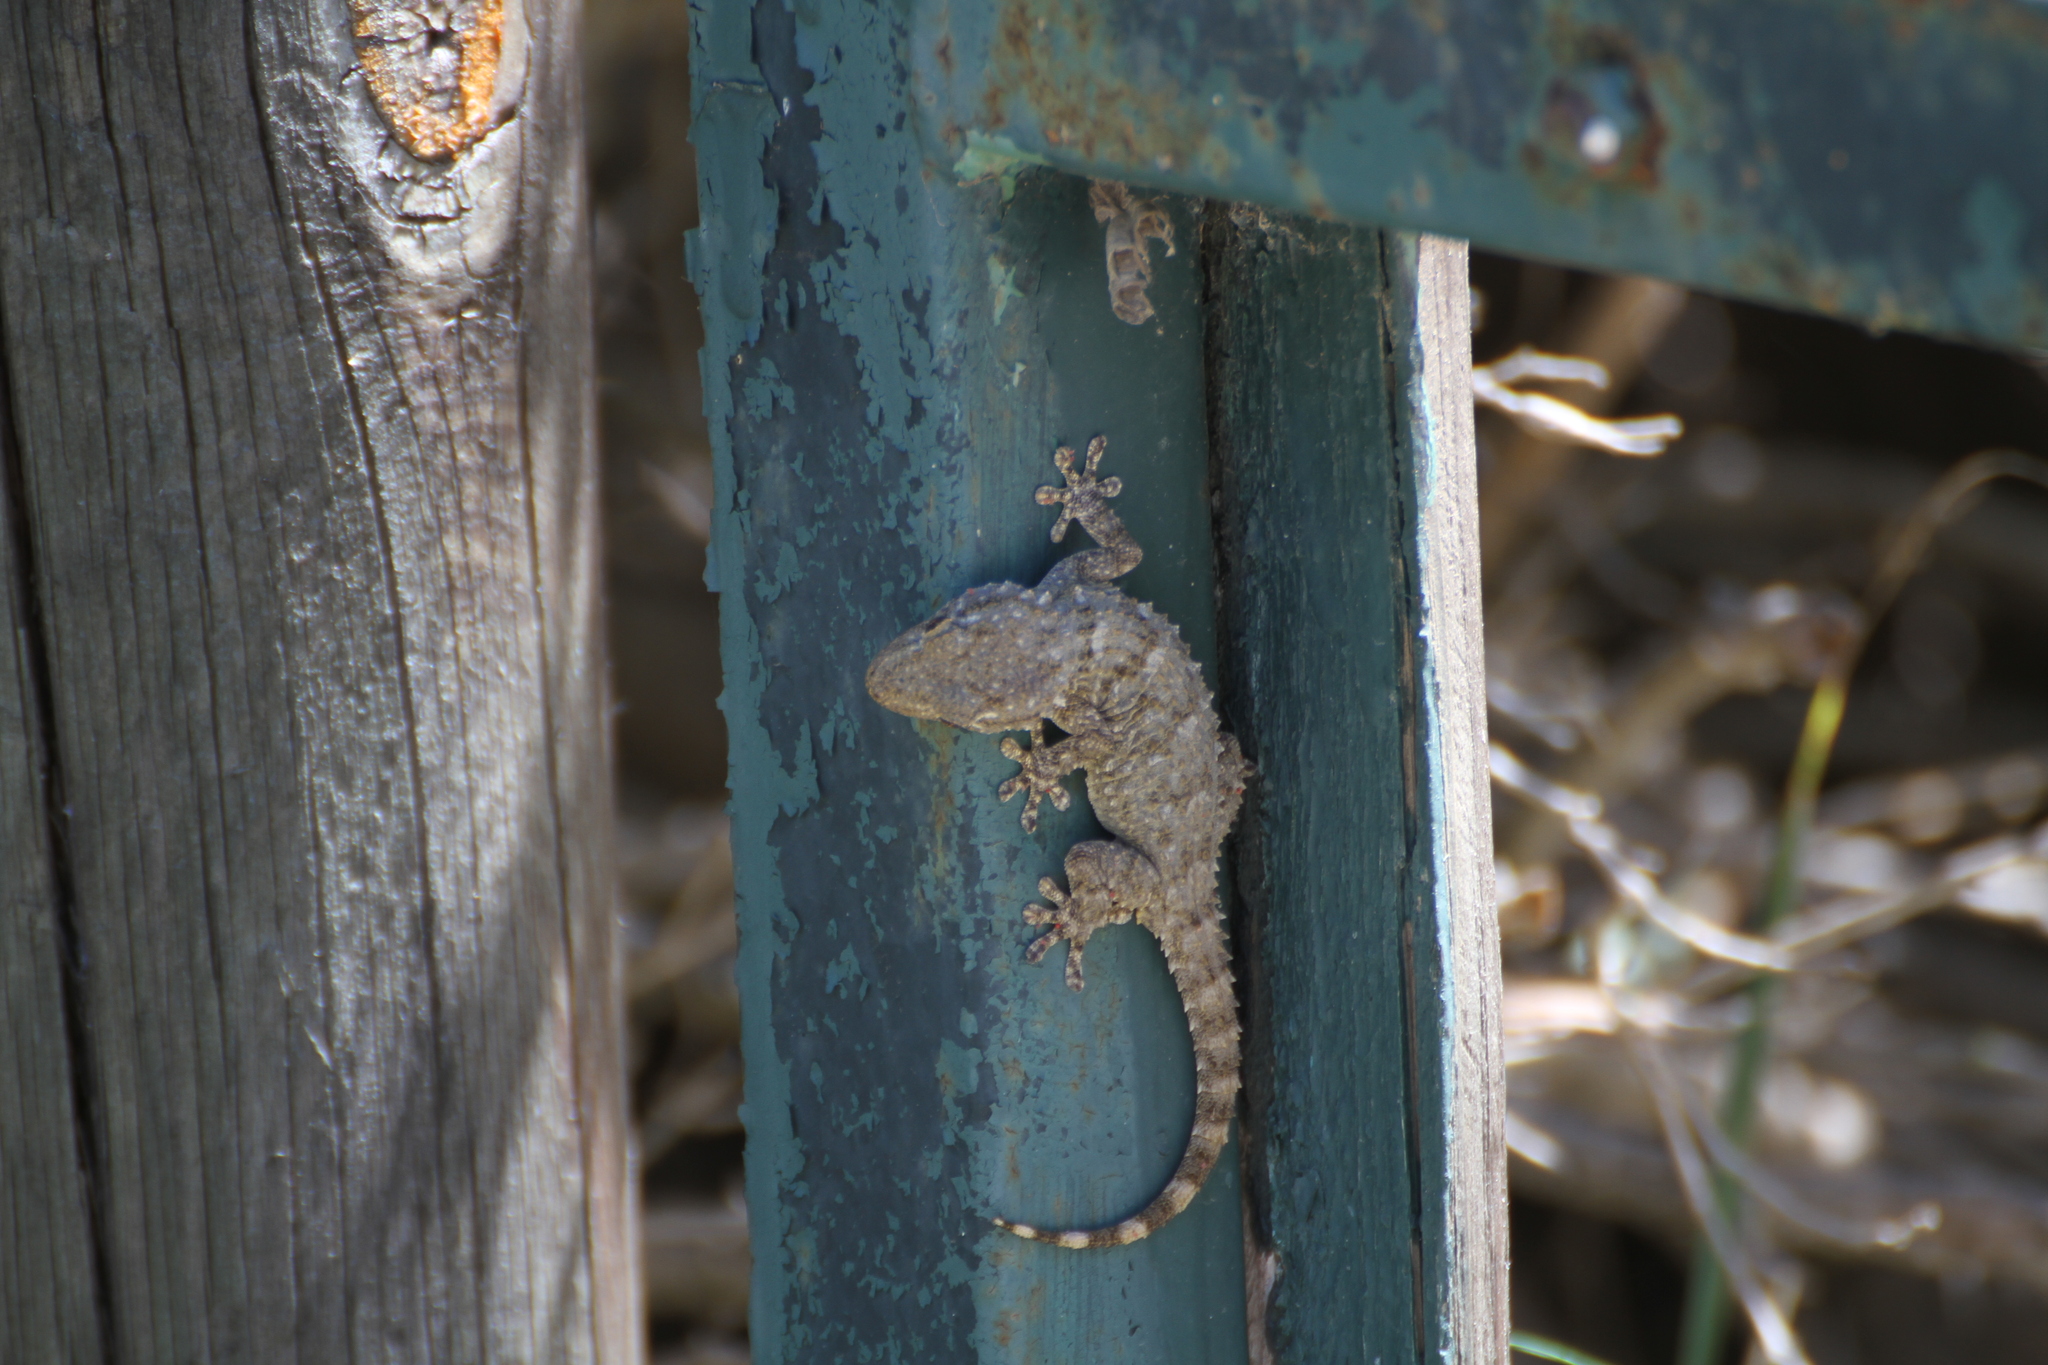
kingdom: Animalia
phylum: Chordata
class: Squamata
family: Phyllodactylidae
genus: Tarentola
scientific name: Tarentola mauritanica
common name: Moorish gecko
